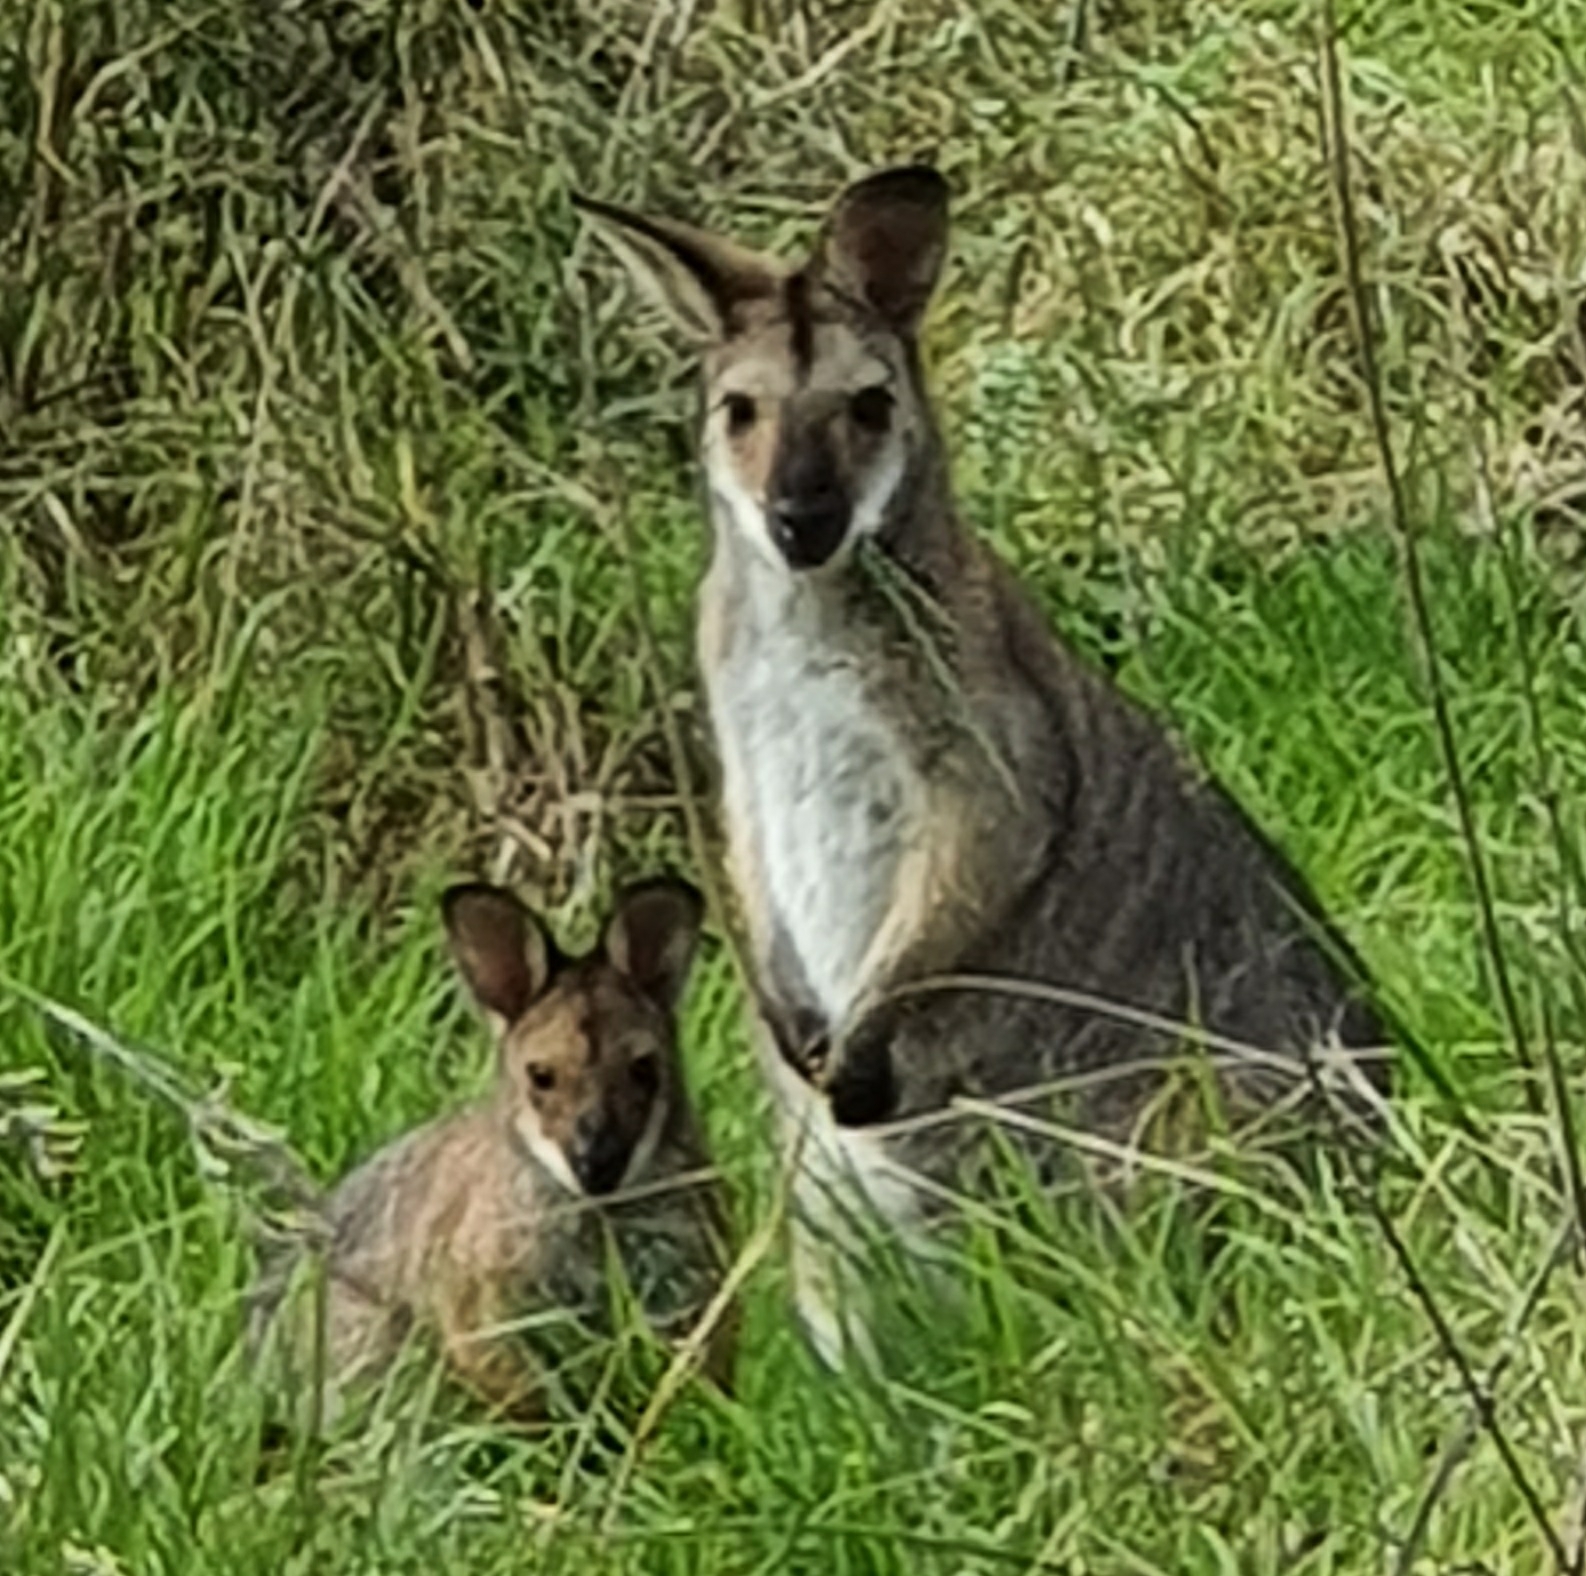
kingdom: Animalia
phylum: Chordata
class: Mammalia
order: Diprotodontia
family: Macropodidae
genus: Notamacropus
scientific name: Notamacropus rufogriseus
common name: Red-necked wallaby
